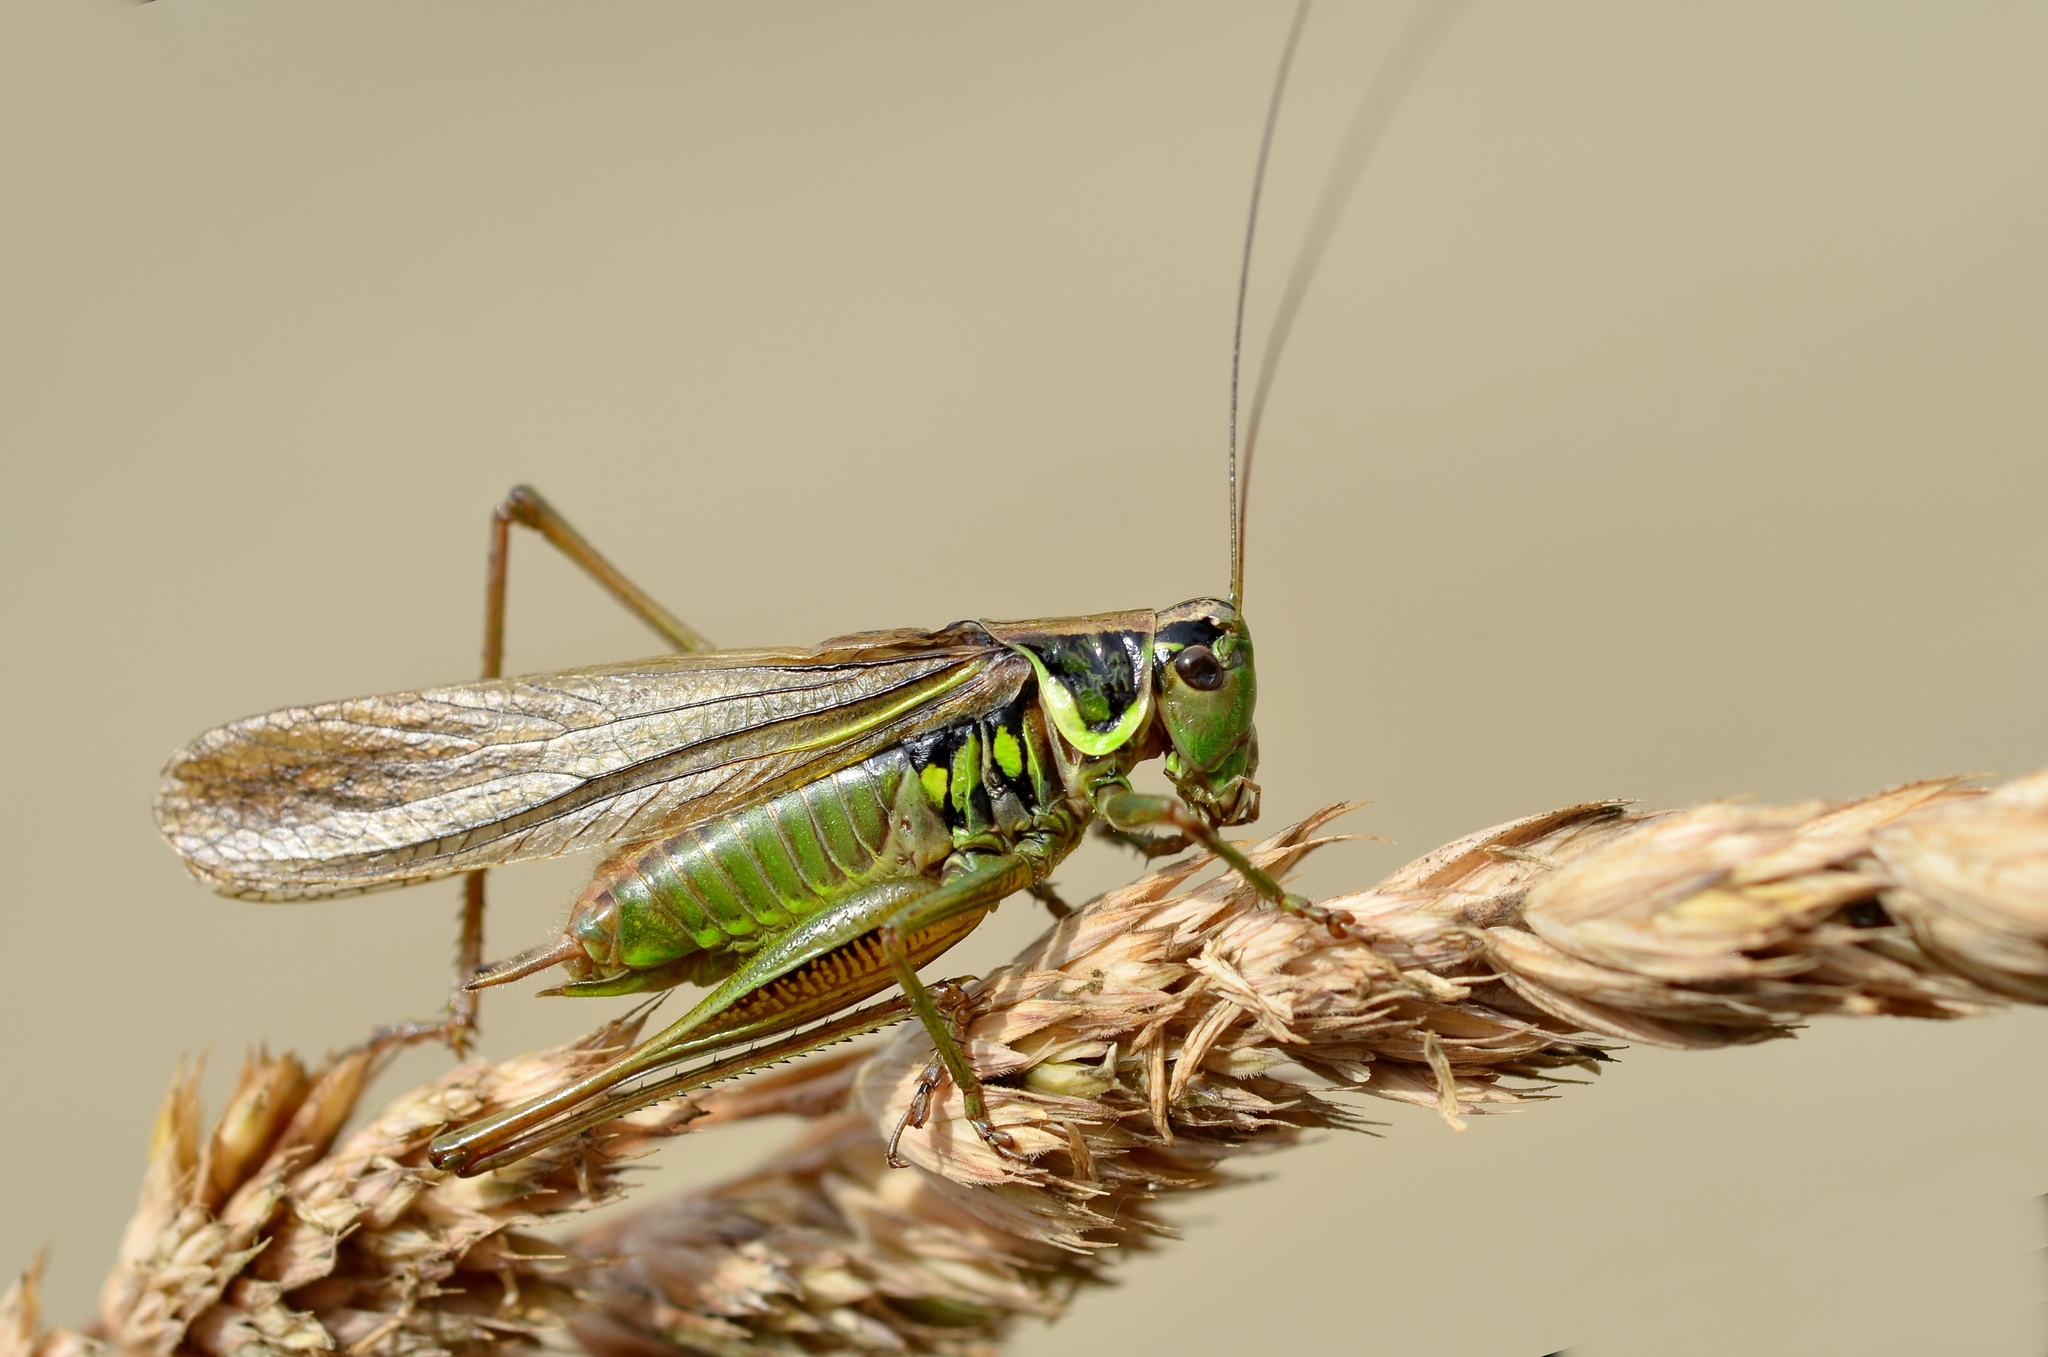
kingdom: Animalia
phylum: Arthropoda
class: Insecta
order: Orthoptera
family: Tettigoniidae
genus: Roeseliana
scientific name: Roeseliana roeselii
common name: Roesel's bush cricket
